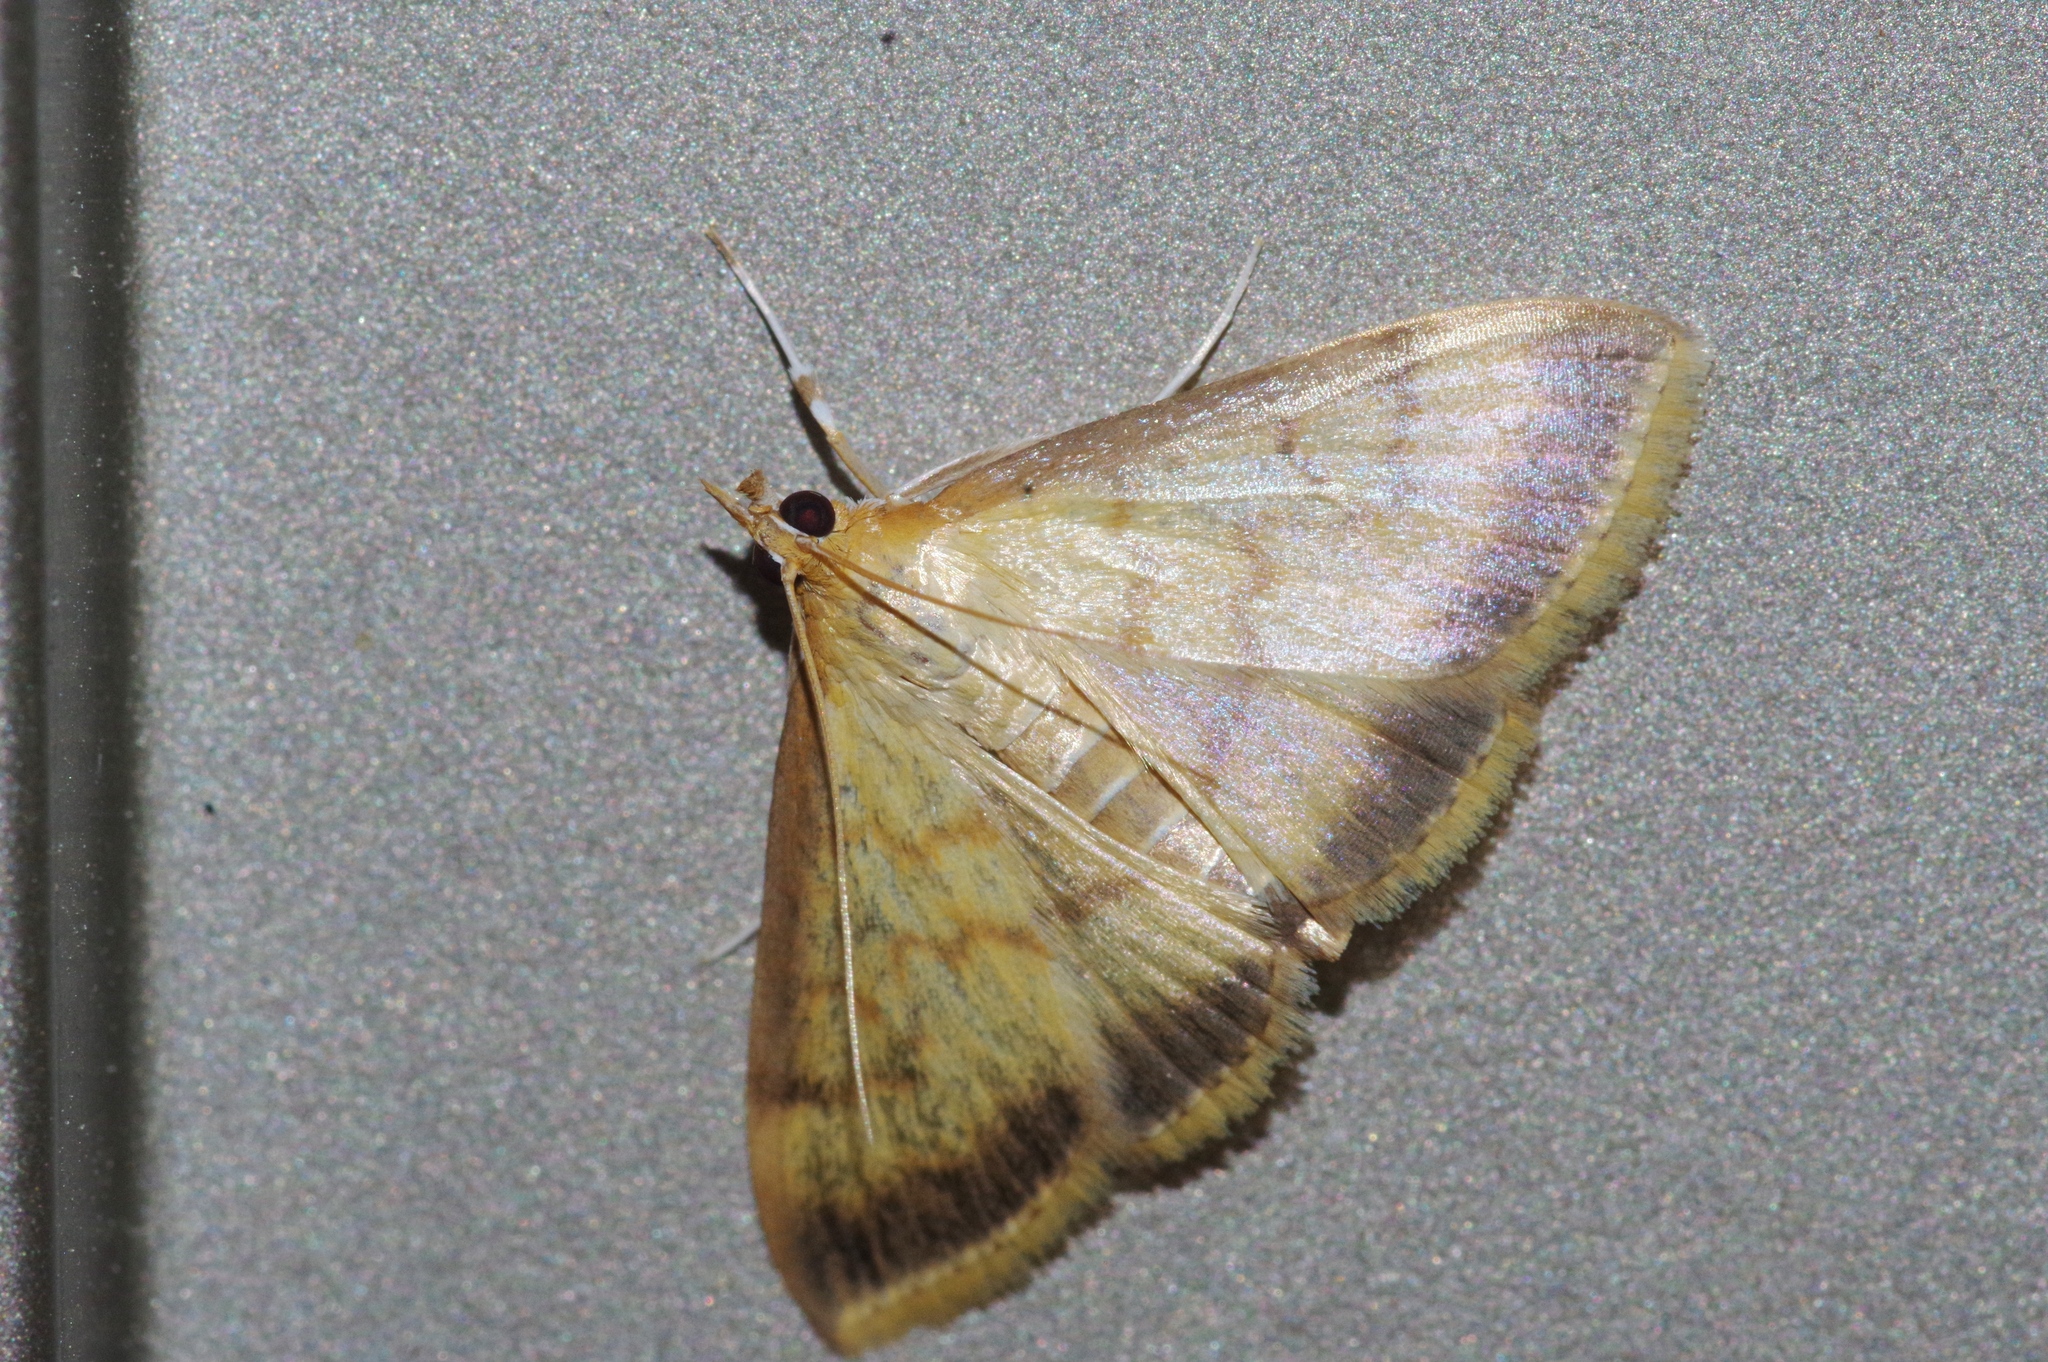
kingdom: Animalia
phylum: Arthropoda
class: Insecta
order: Lepidoptera
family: Crambidae
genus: Nephelobotys
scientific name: Nephelobotys evenoralis
